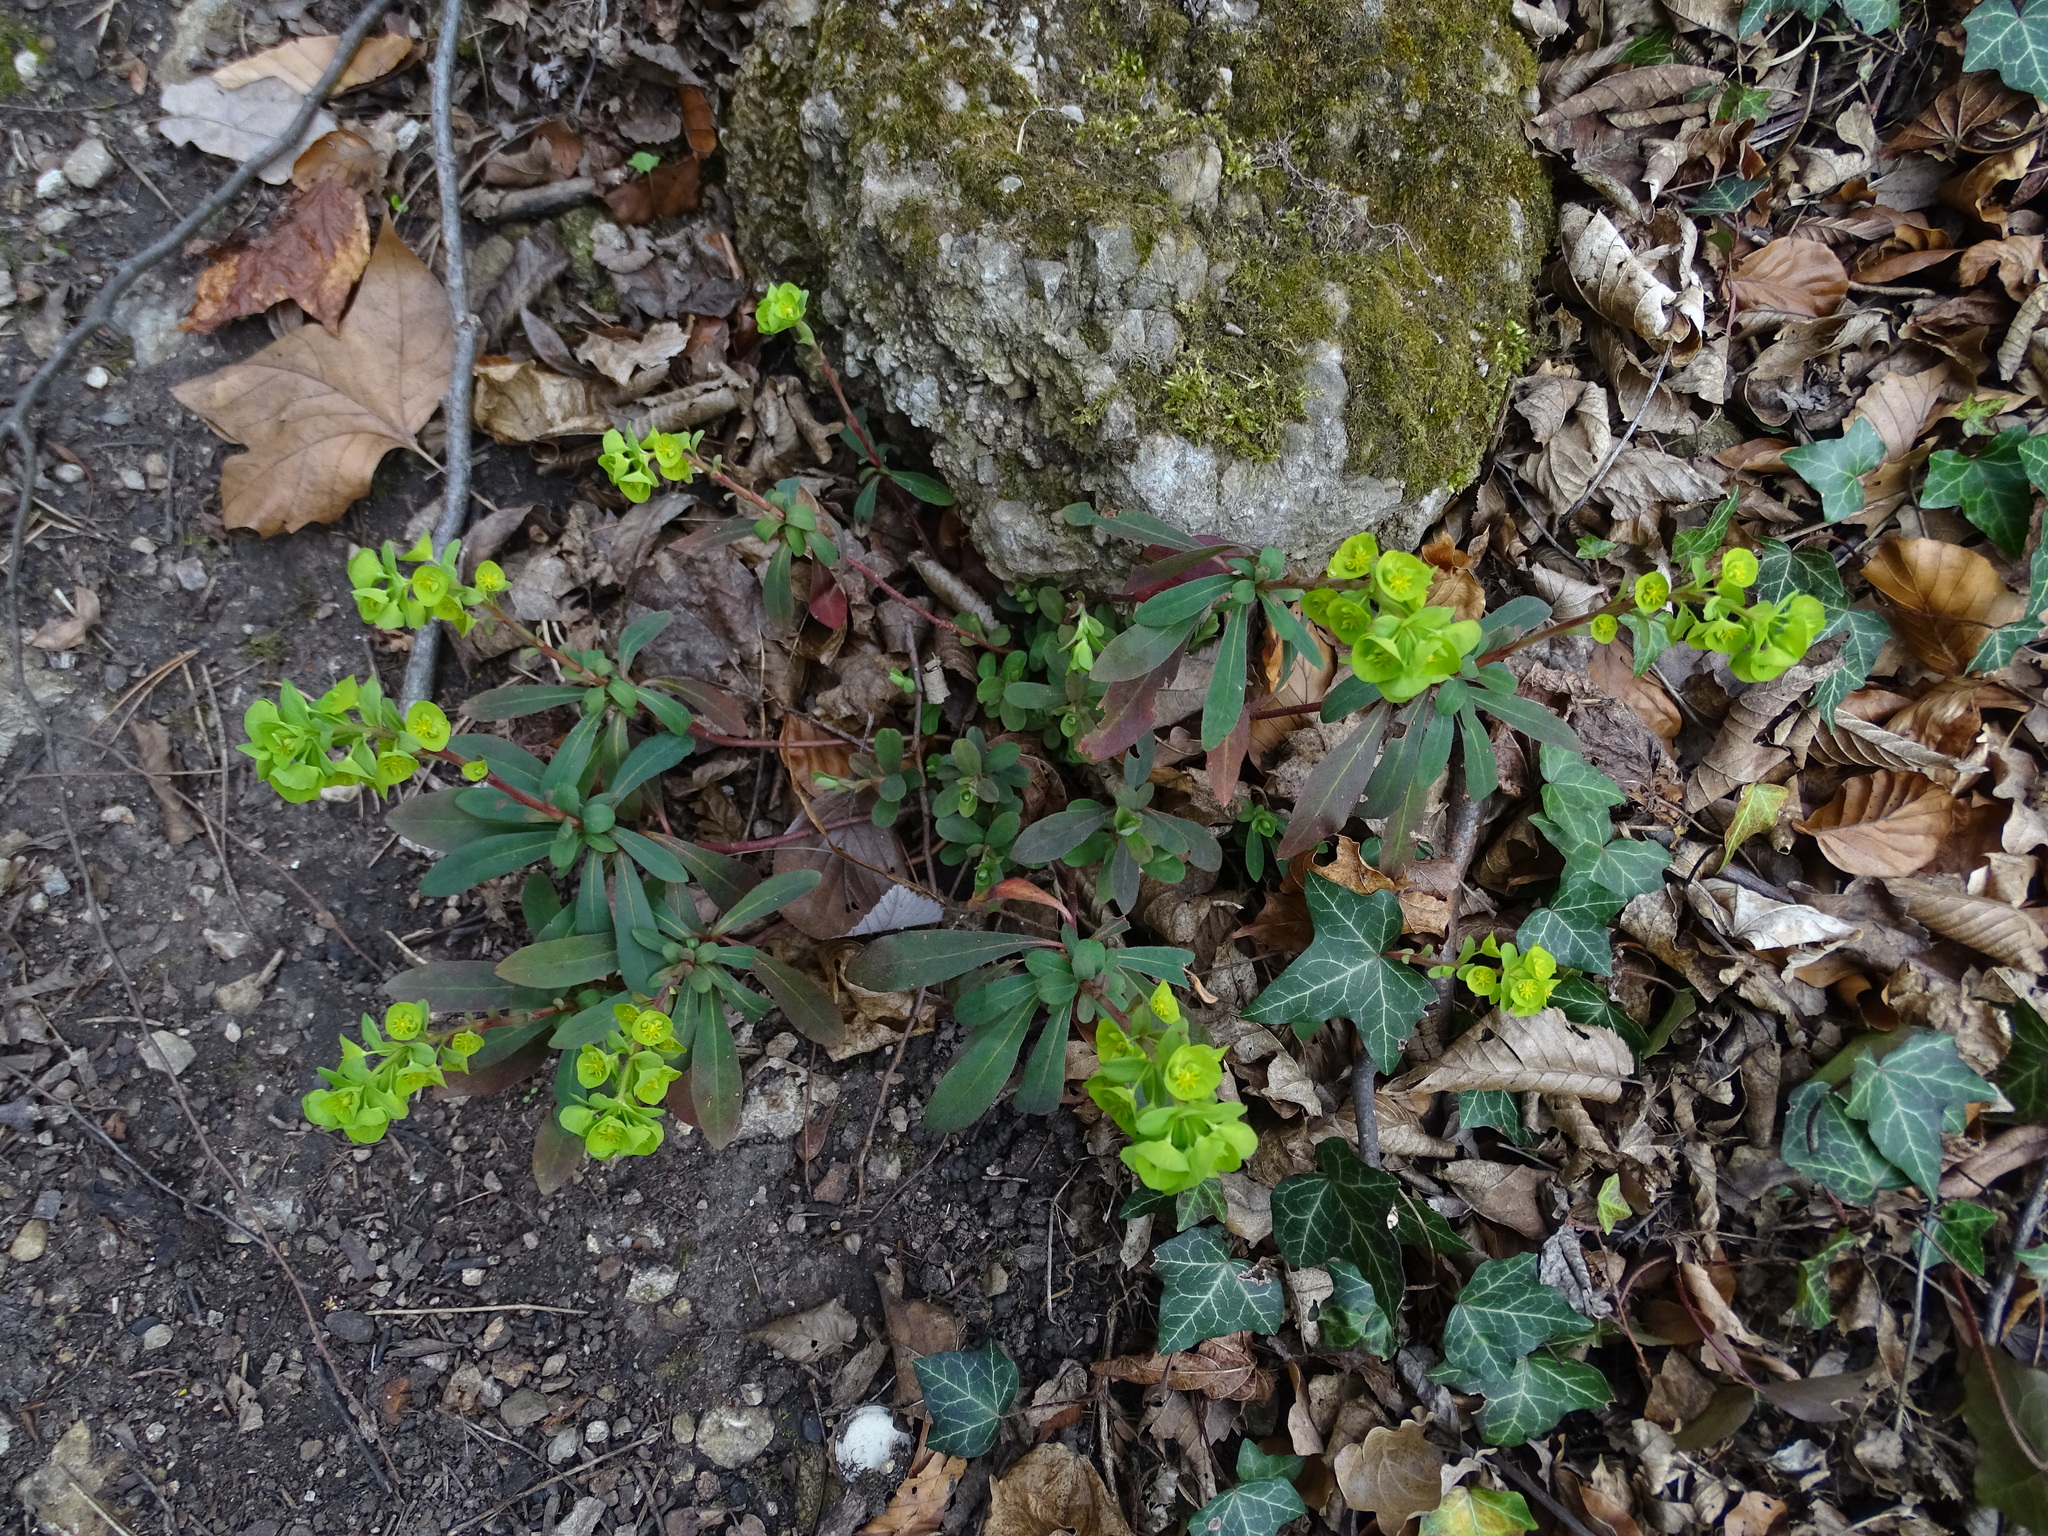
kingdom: Plantae
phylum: Tracheophyta
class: Magnoliopsida
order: Malpighiales
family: Euphorbiaceae
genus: Euphorbia
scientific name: Euphorbia amygdaloides
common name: Wood spurge
